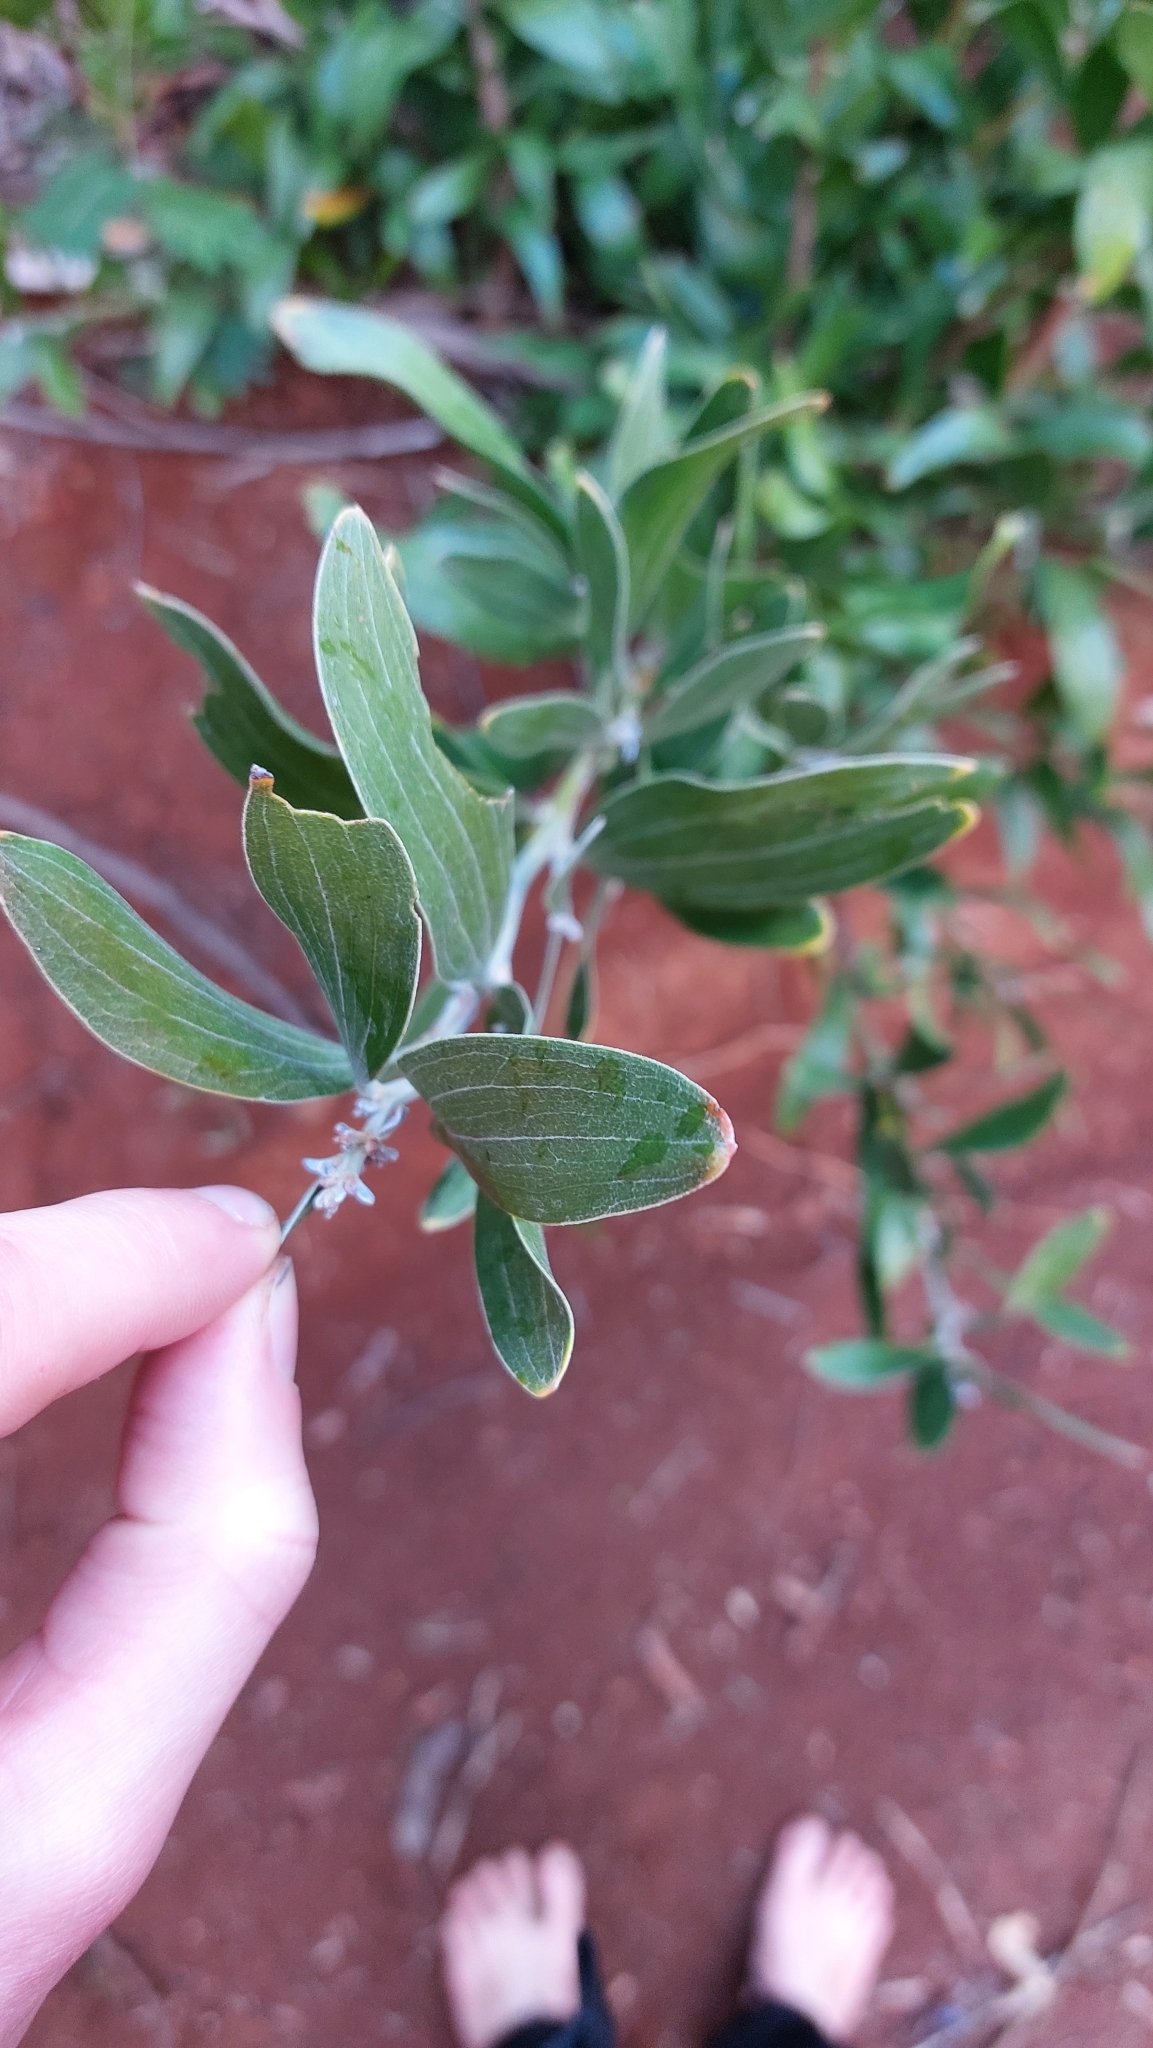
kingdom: Plantae
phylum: Tracheophyta
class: Magnoliopsida
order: Fabales
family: Fabaceae
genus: Acacia
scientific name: Acacia melanoxylon
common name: Blackwood
